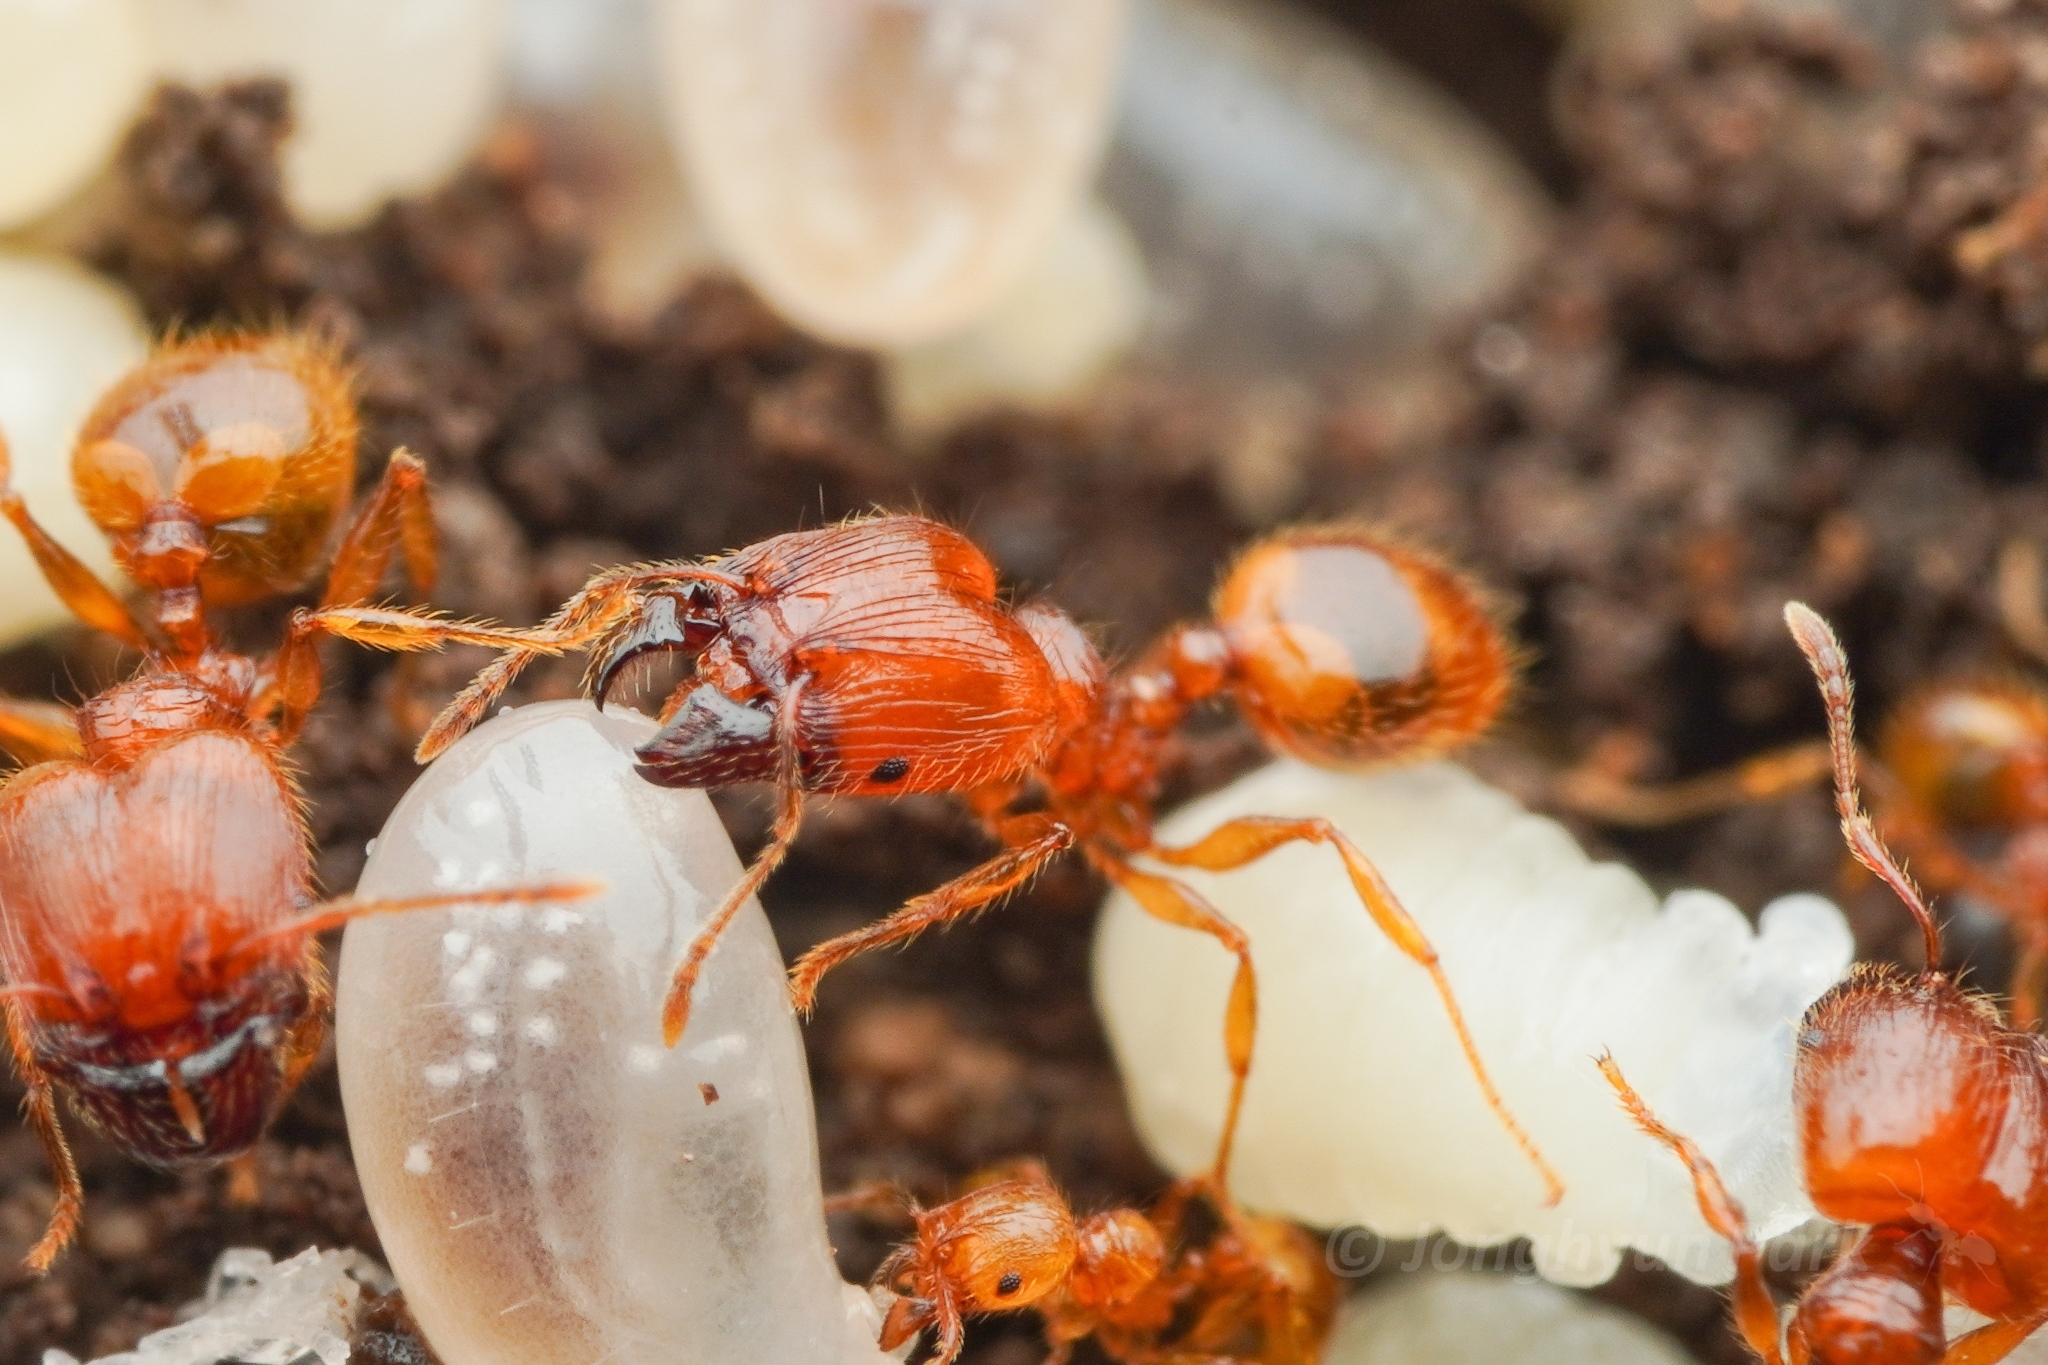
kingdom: Animalia
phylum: Arthropoda
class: Insecta
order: Hymenoptera
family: Formicidae
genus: Pheidole
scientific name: Pheidole fervida
